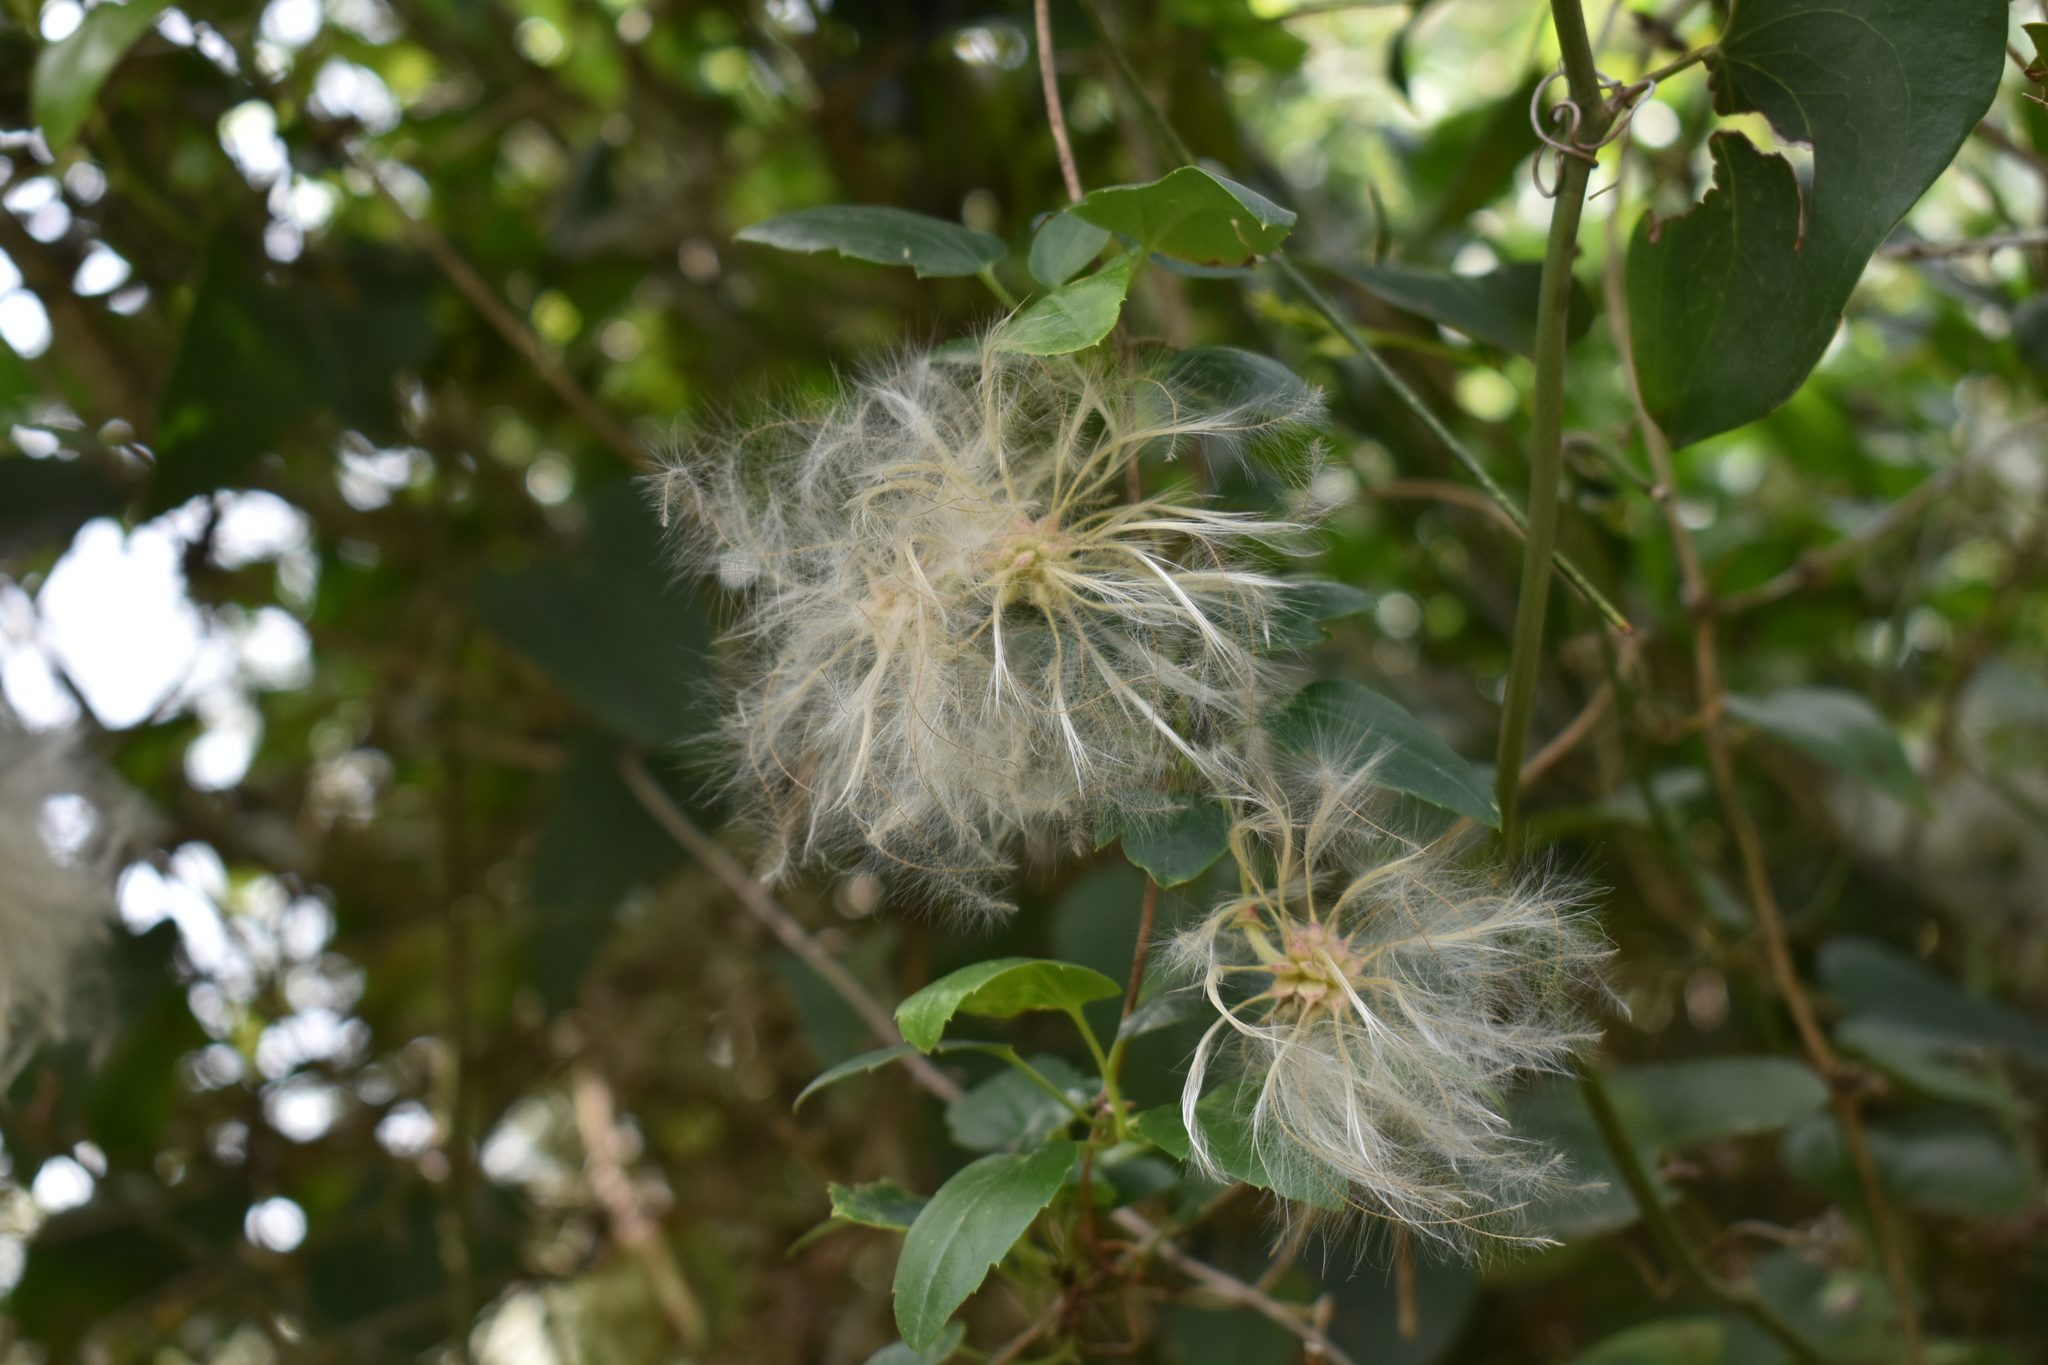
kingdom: Plantae
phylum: Tracheophyta
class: Magnoliopsida
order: Ranunculales
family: Ranunculaceae
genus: Clematis
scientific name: Clematis cirrhosa
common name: Early virgin's-bower
